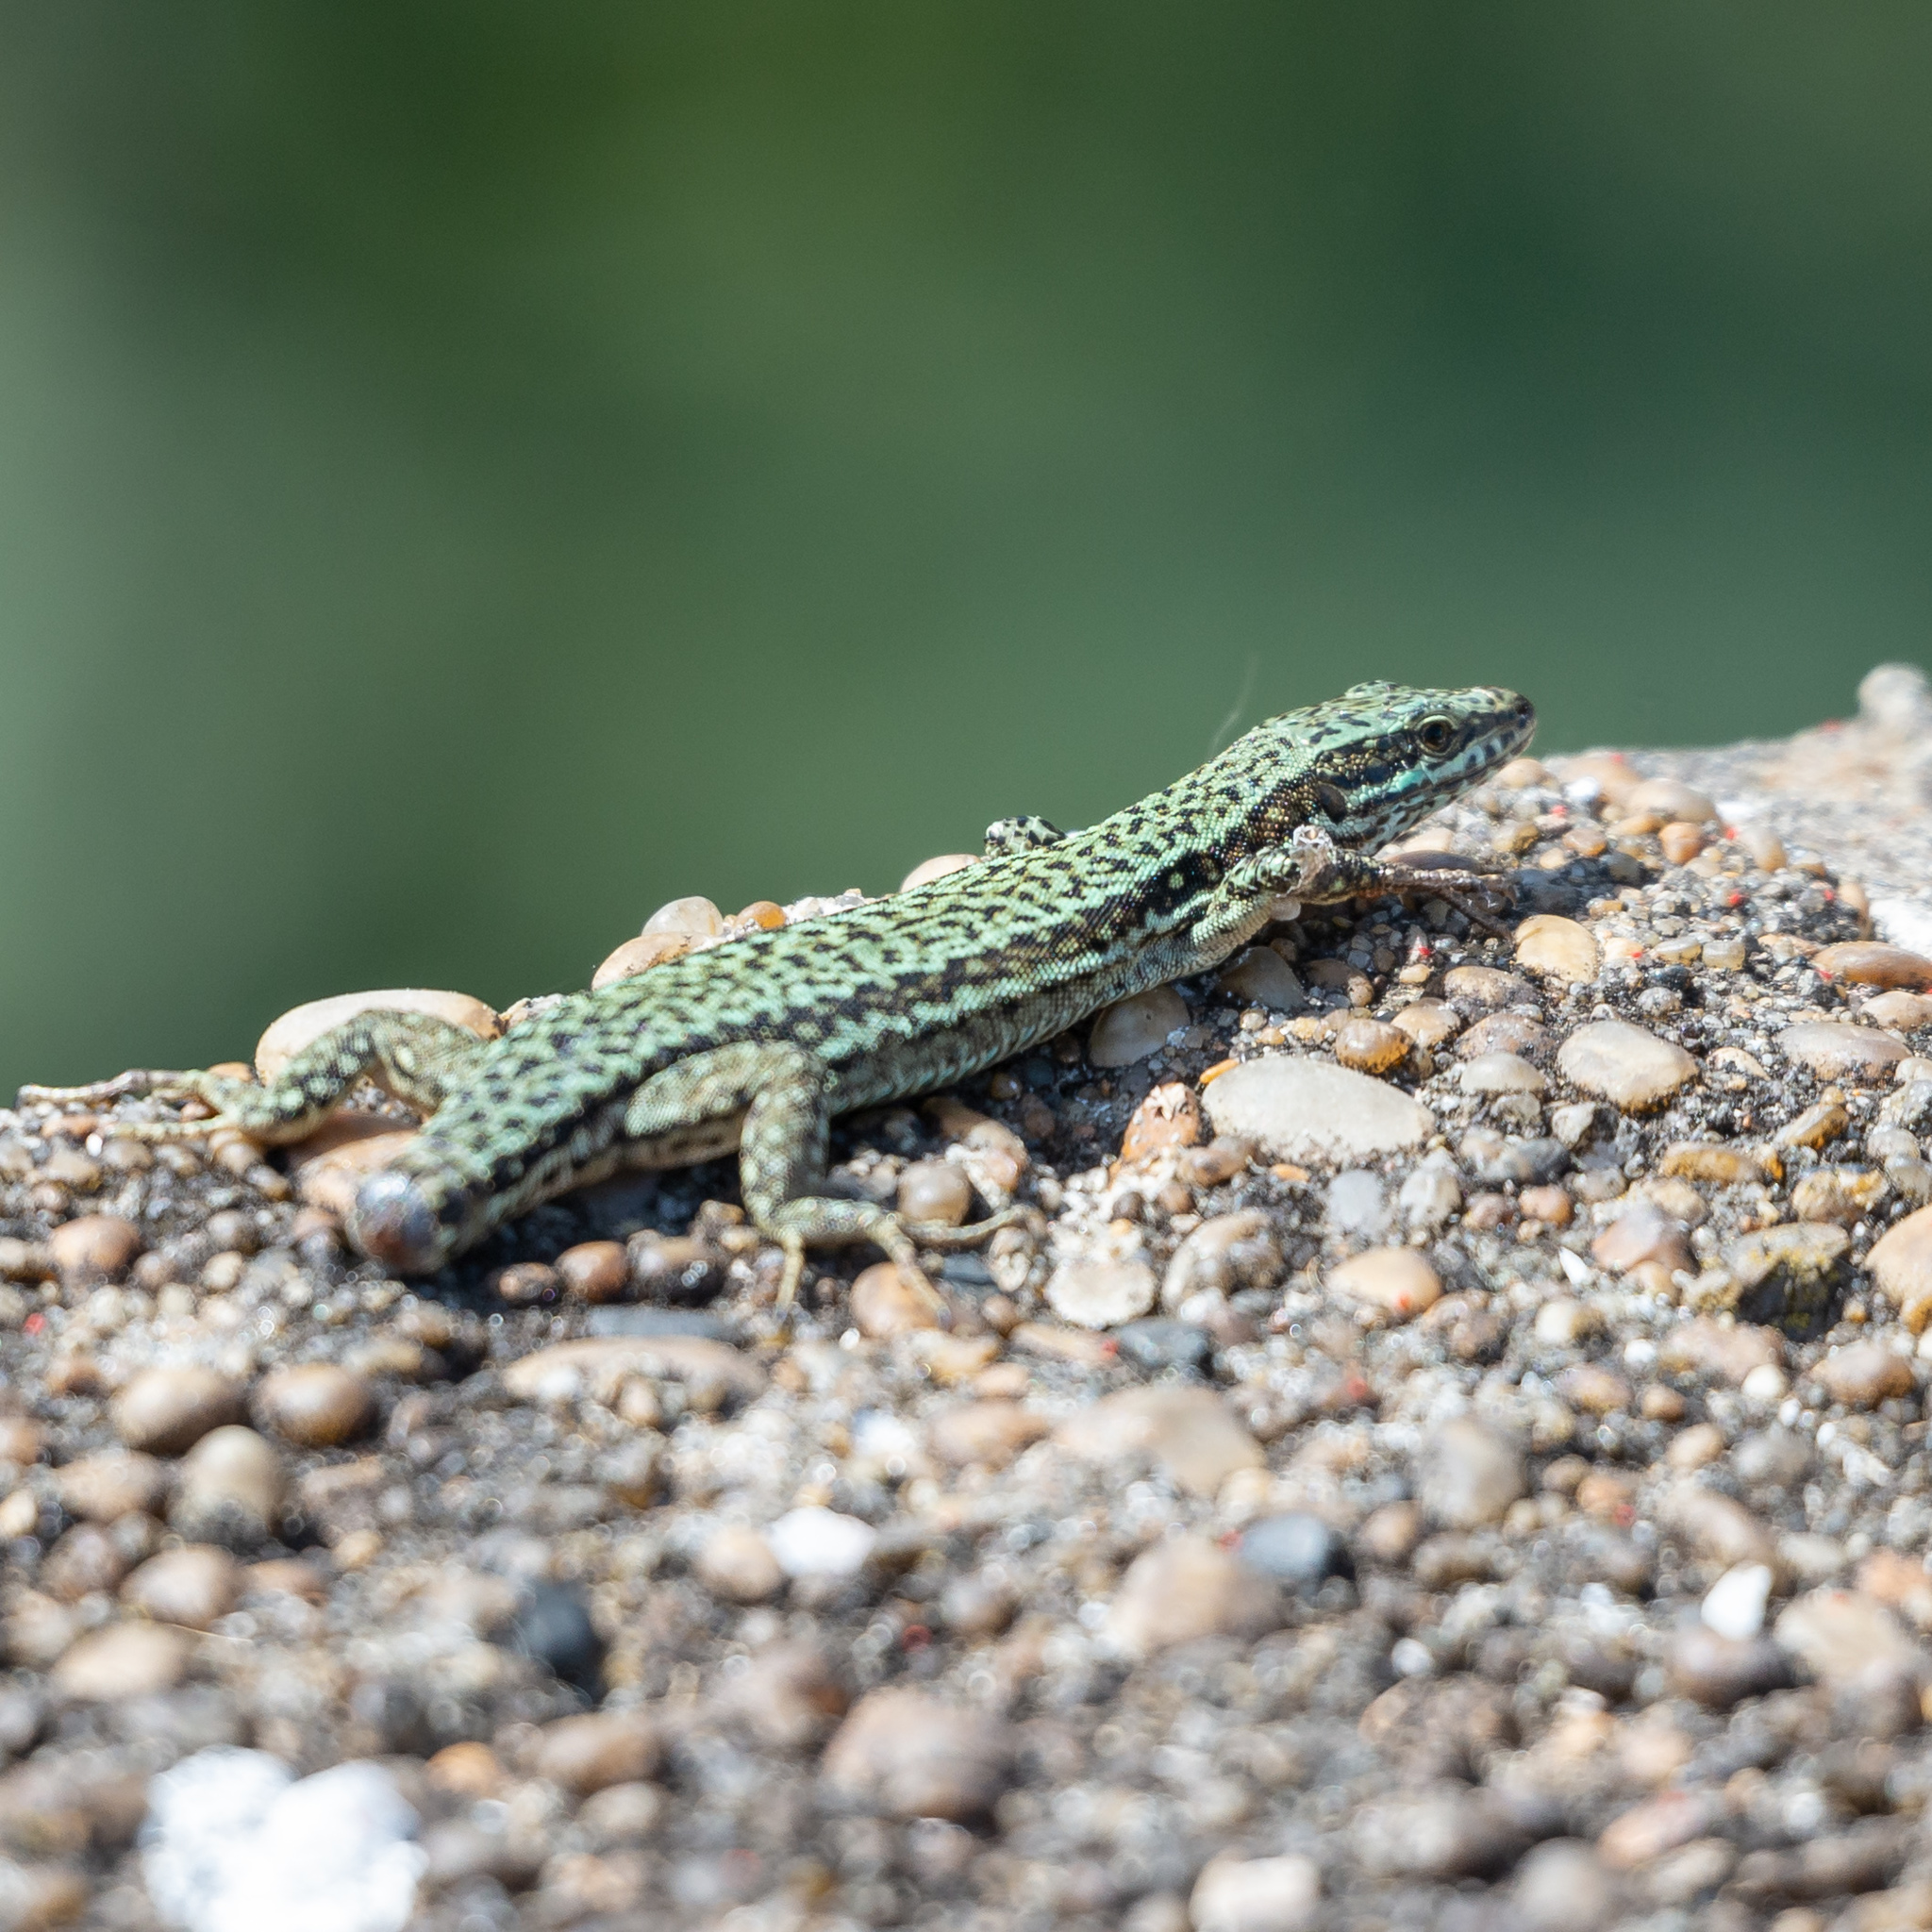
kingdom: Animalia
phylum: Chordata
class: Squamata
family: Lacertidae
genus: Podarcis
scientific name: Podarcis muralis
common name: Common wall lizard
